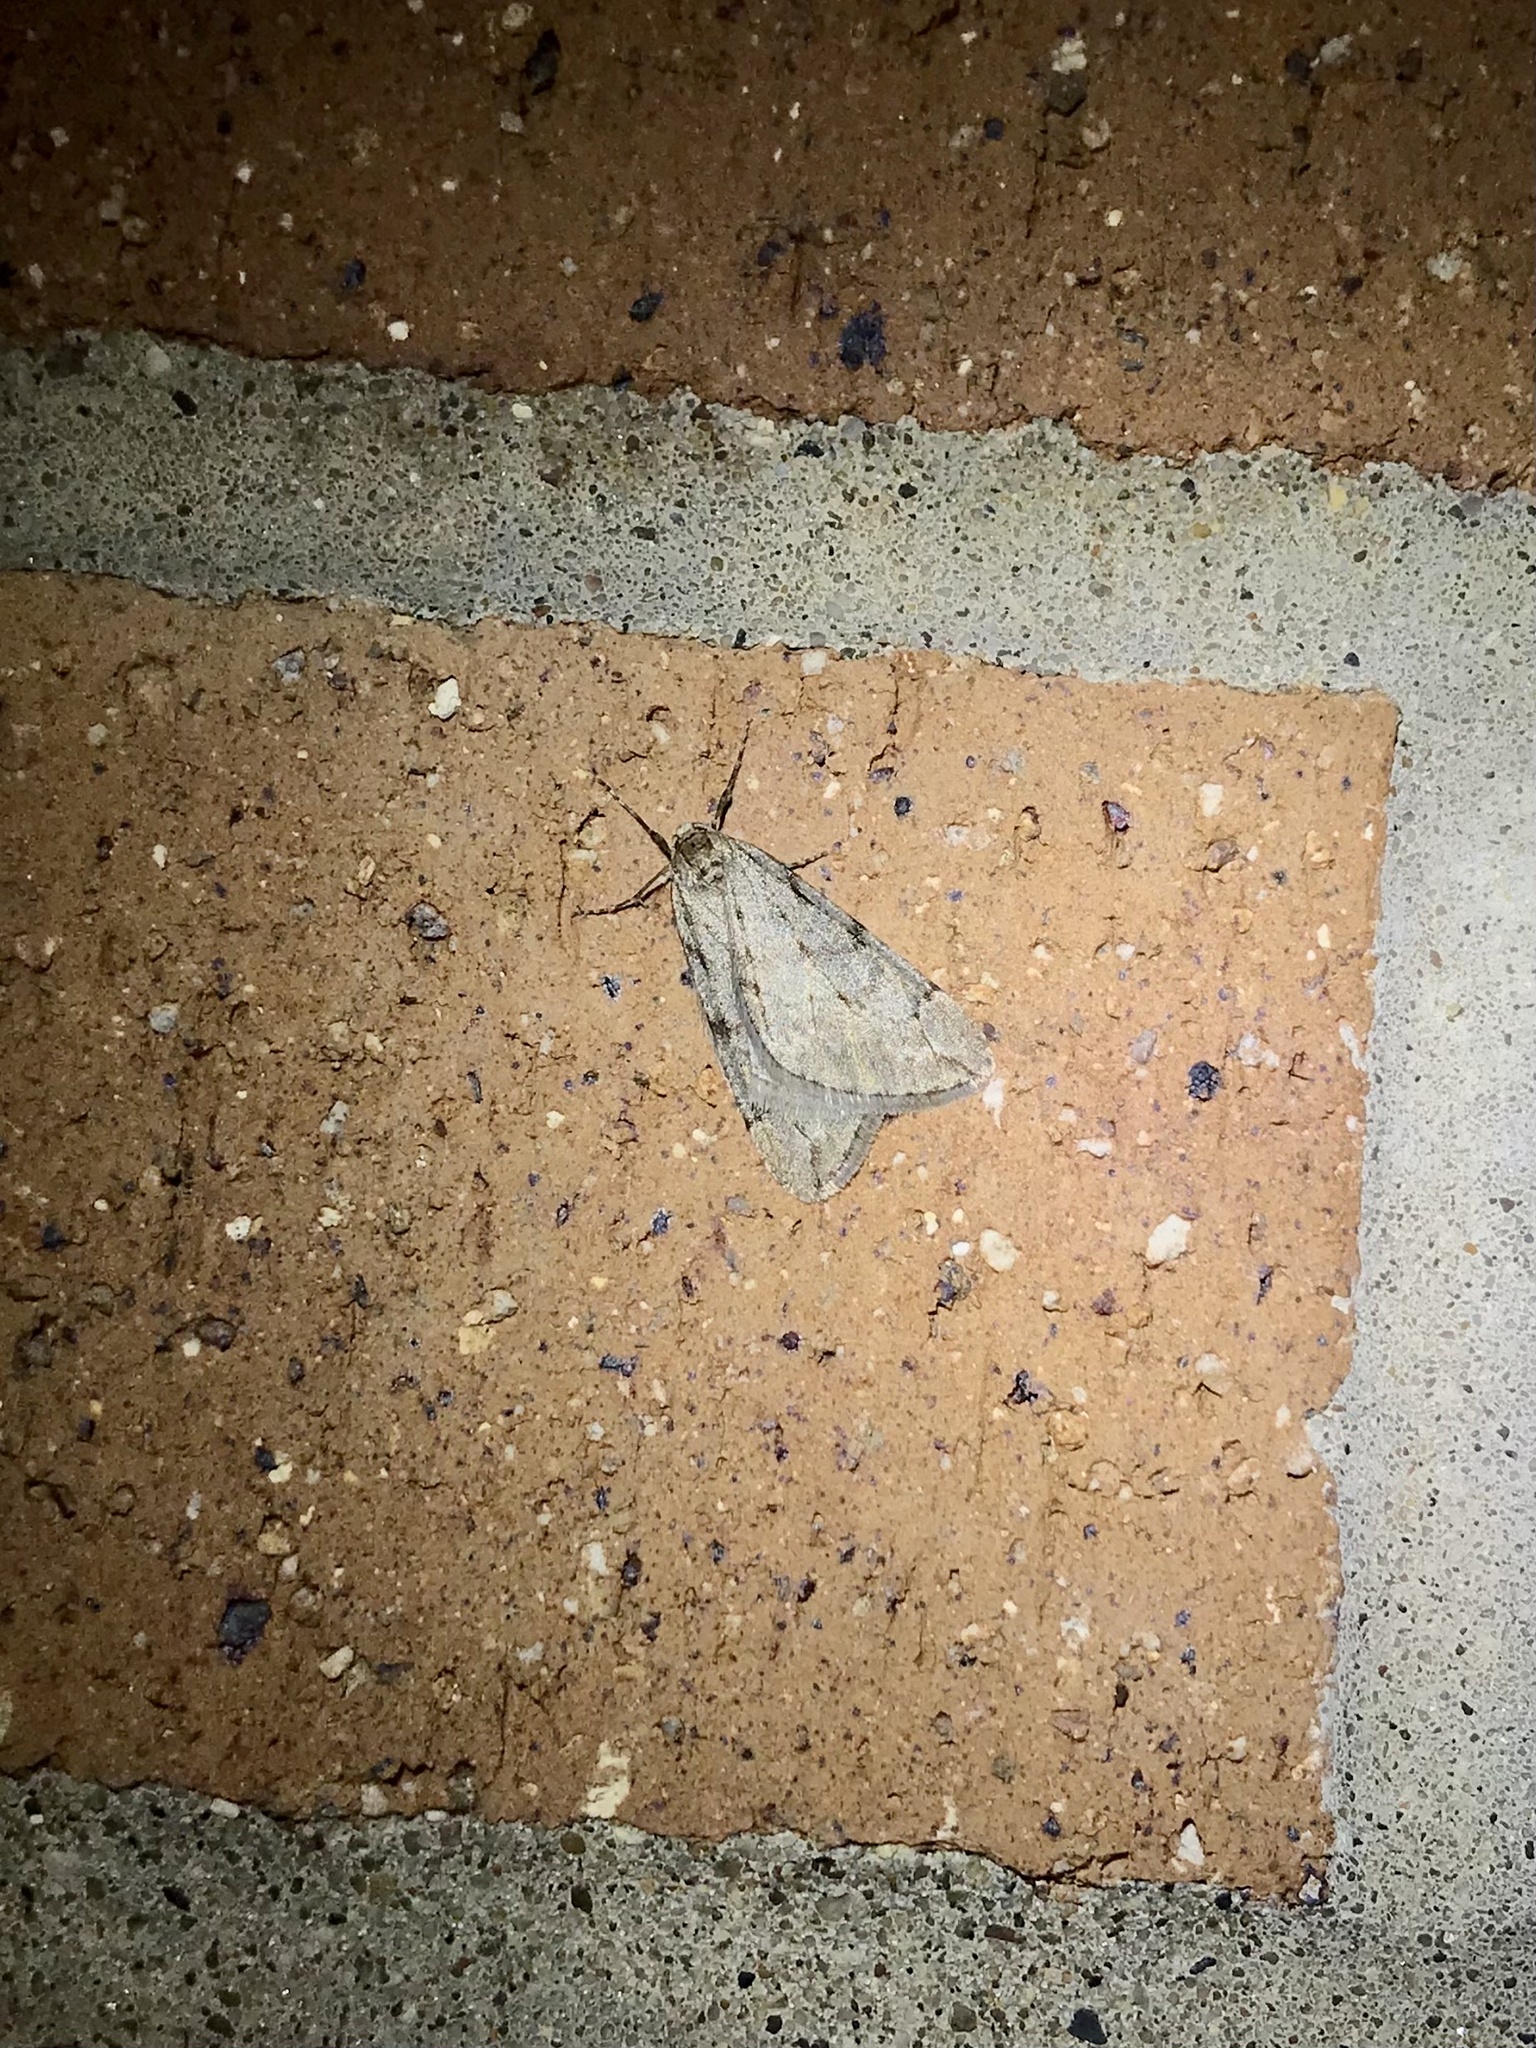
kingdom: Animalia
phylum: Arthropoda
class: Insecta
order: Lepidoptera
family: Geometridae
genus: Paleacrita
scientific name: Paleacrita vernata
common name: Spring cankerworm
